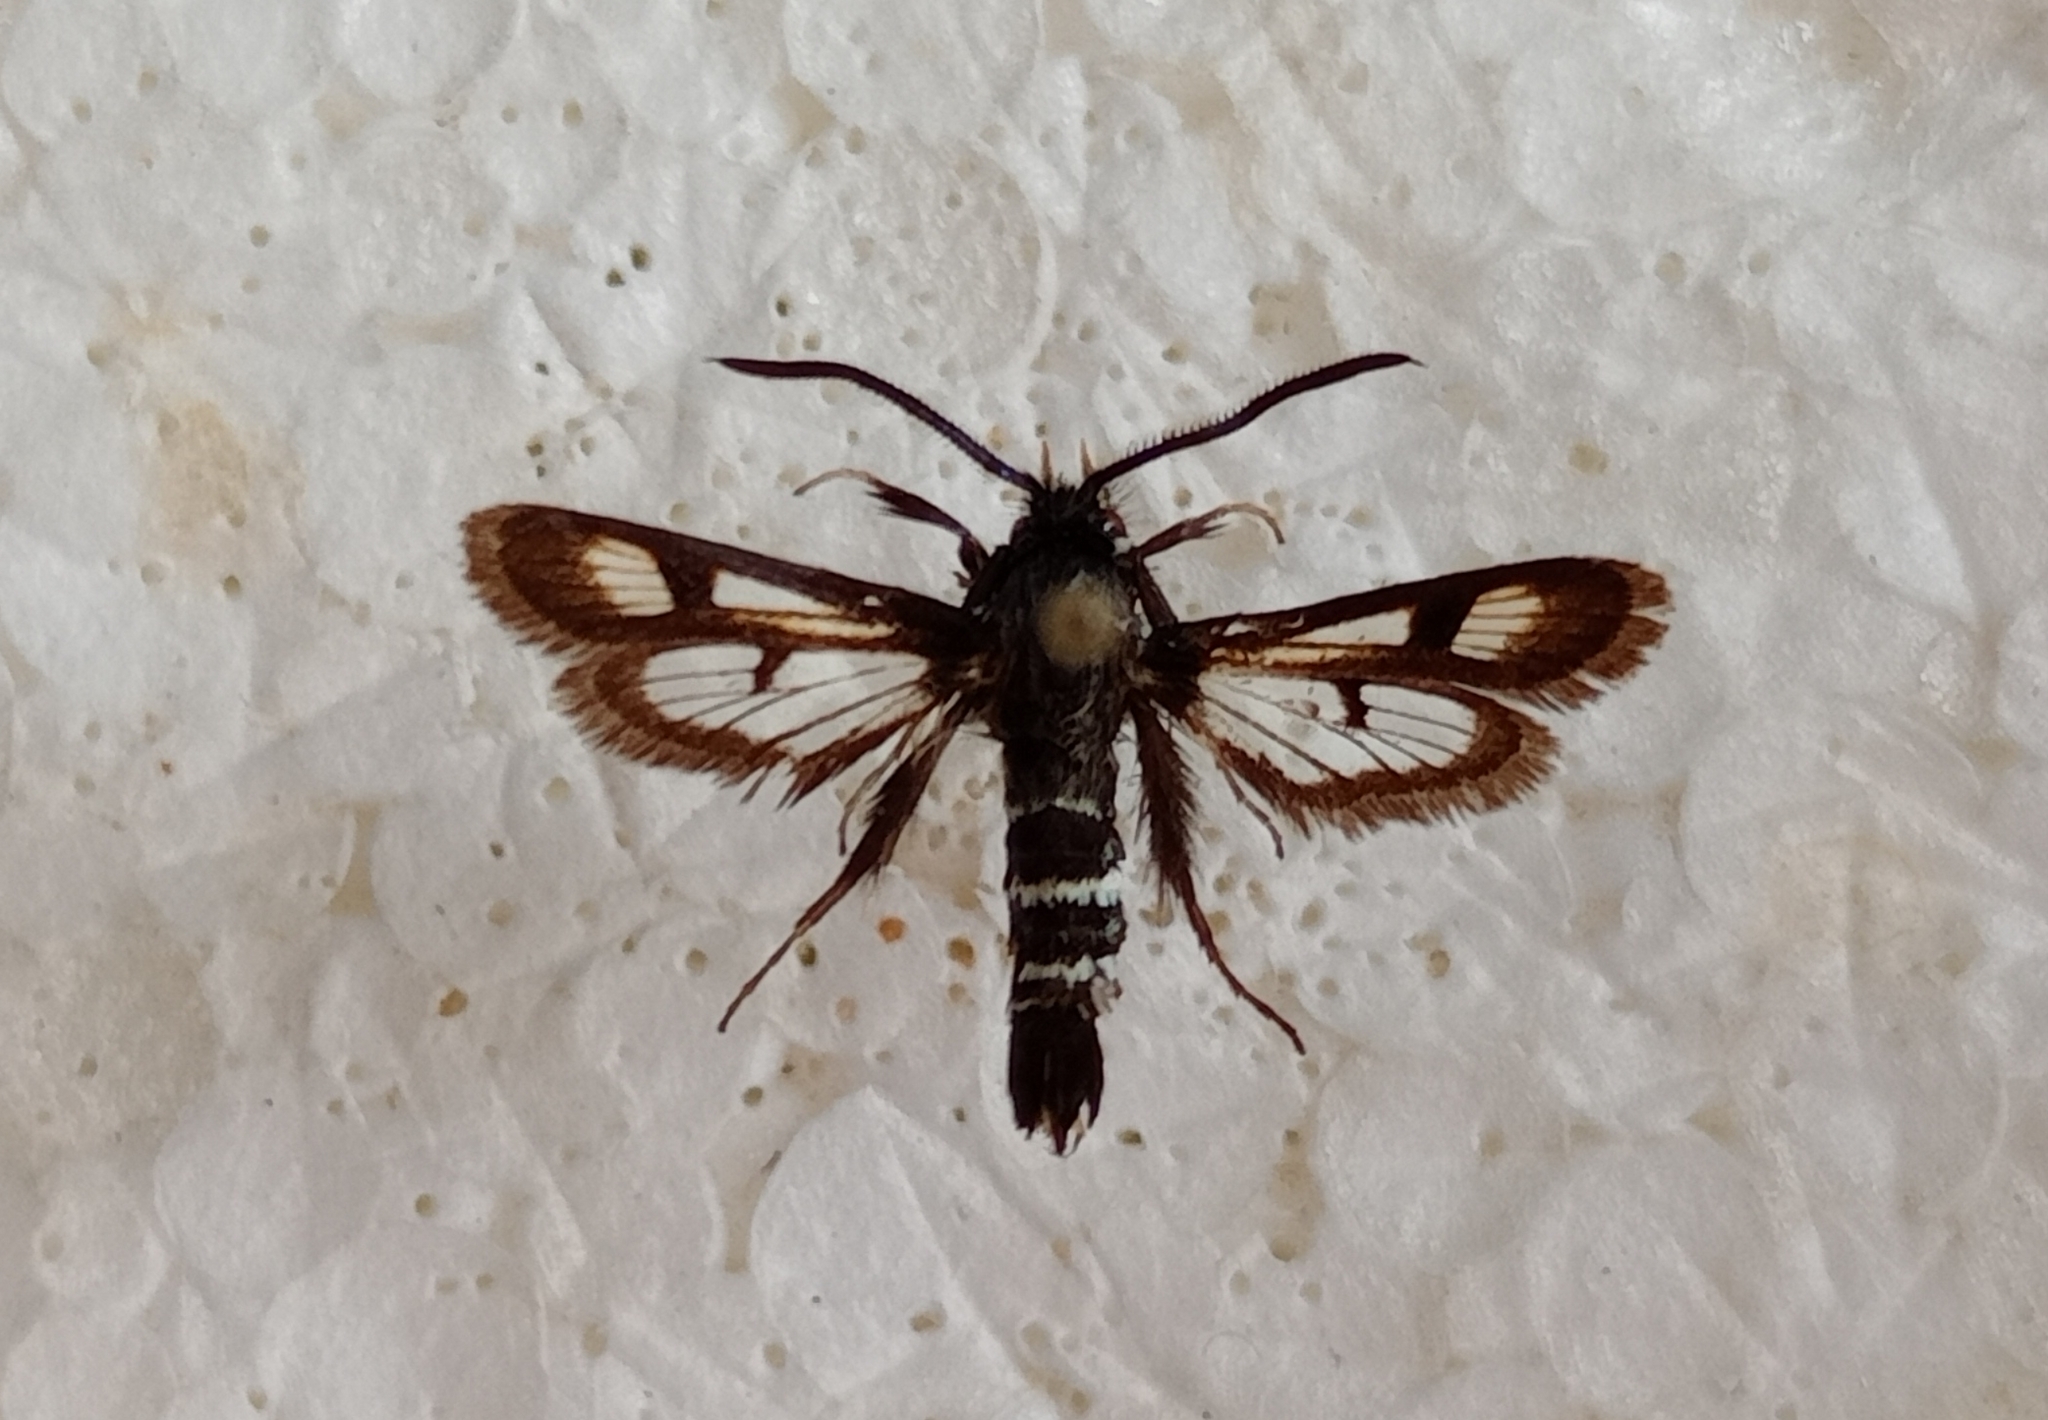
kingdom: Animalia
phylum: Arthropoda
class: Insecta
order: Lepidoptera
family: Sesiidae
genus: Euhagena
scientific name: Euhagena palariformis
